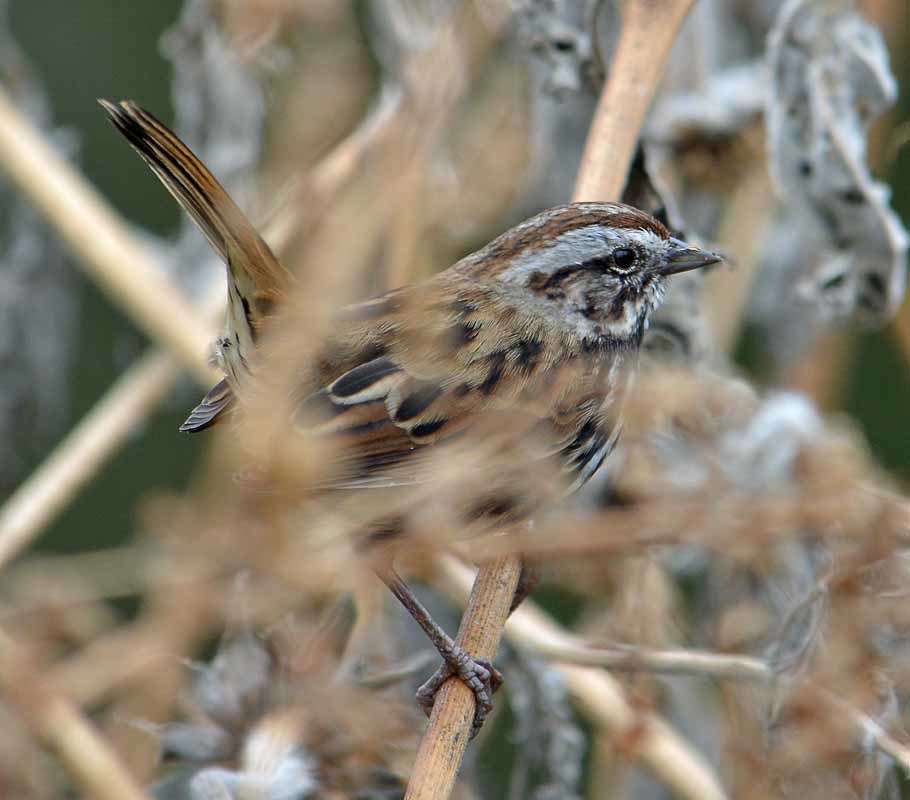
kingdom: Animalia
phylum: Chordata
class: Aves
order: Passeriformes
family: Passerellidae
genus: Melospiza
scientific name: Melospiza melodia
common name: Song sparrow
